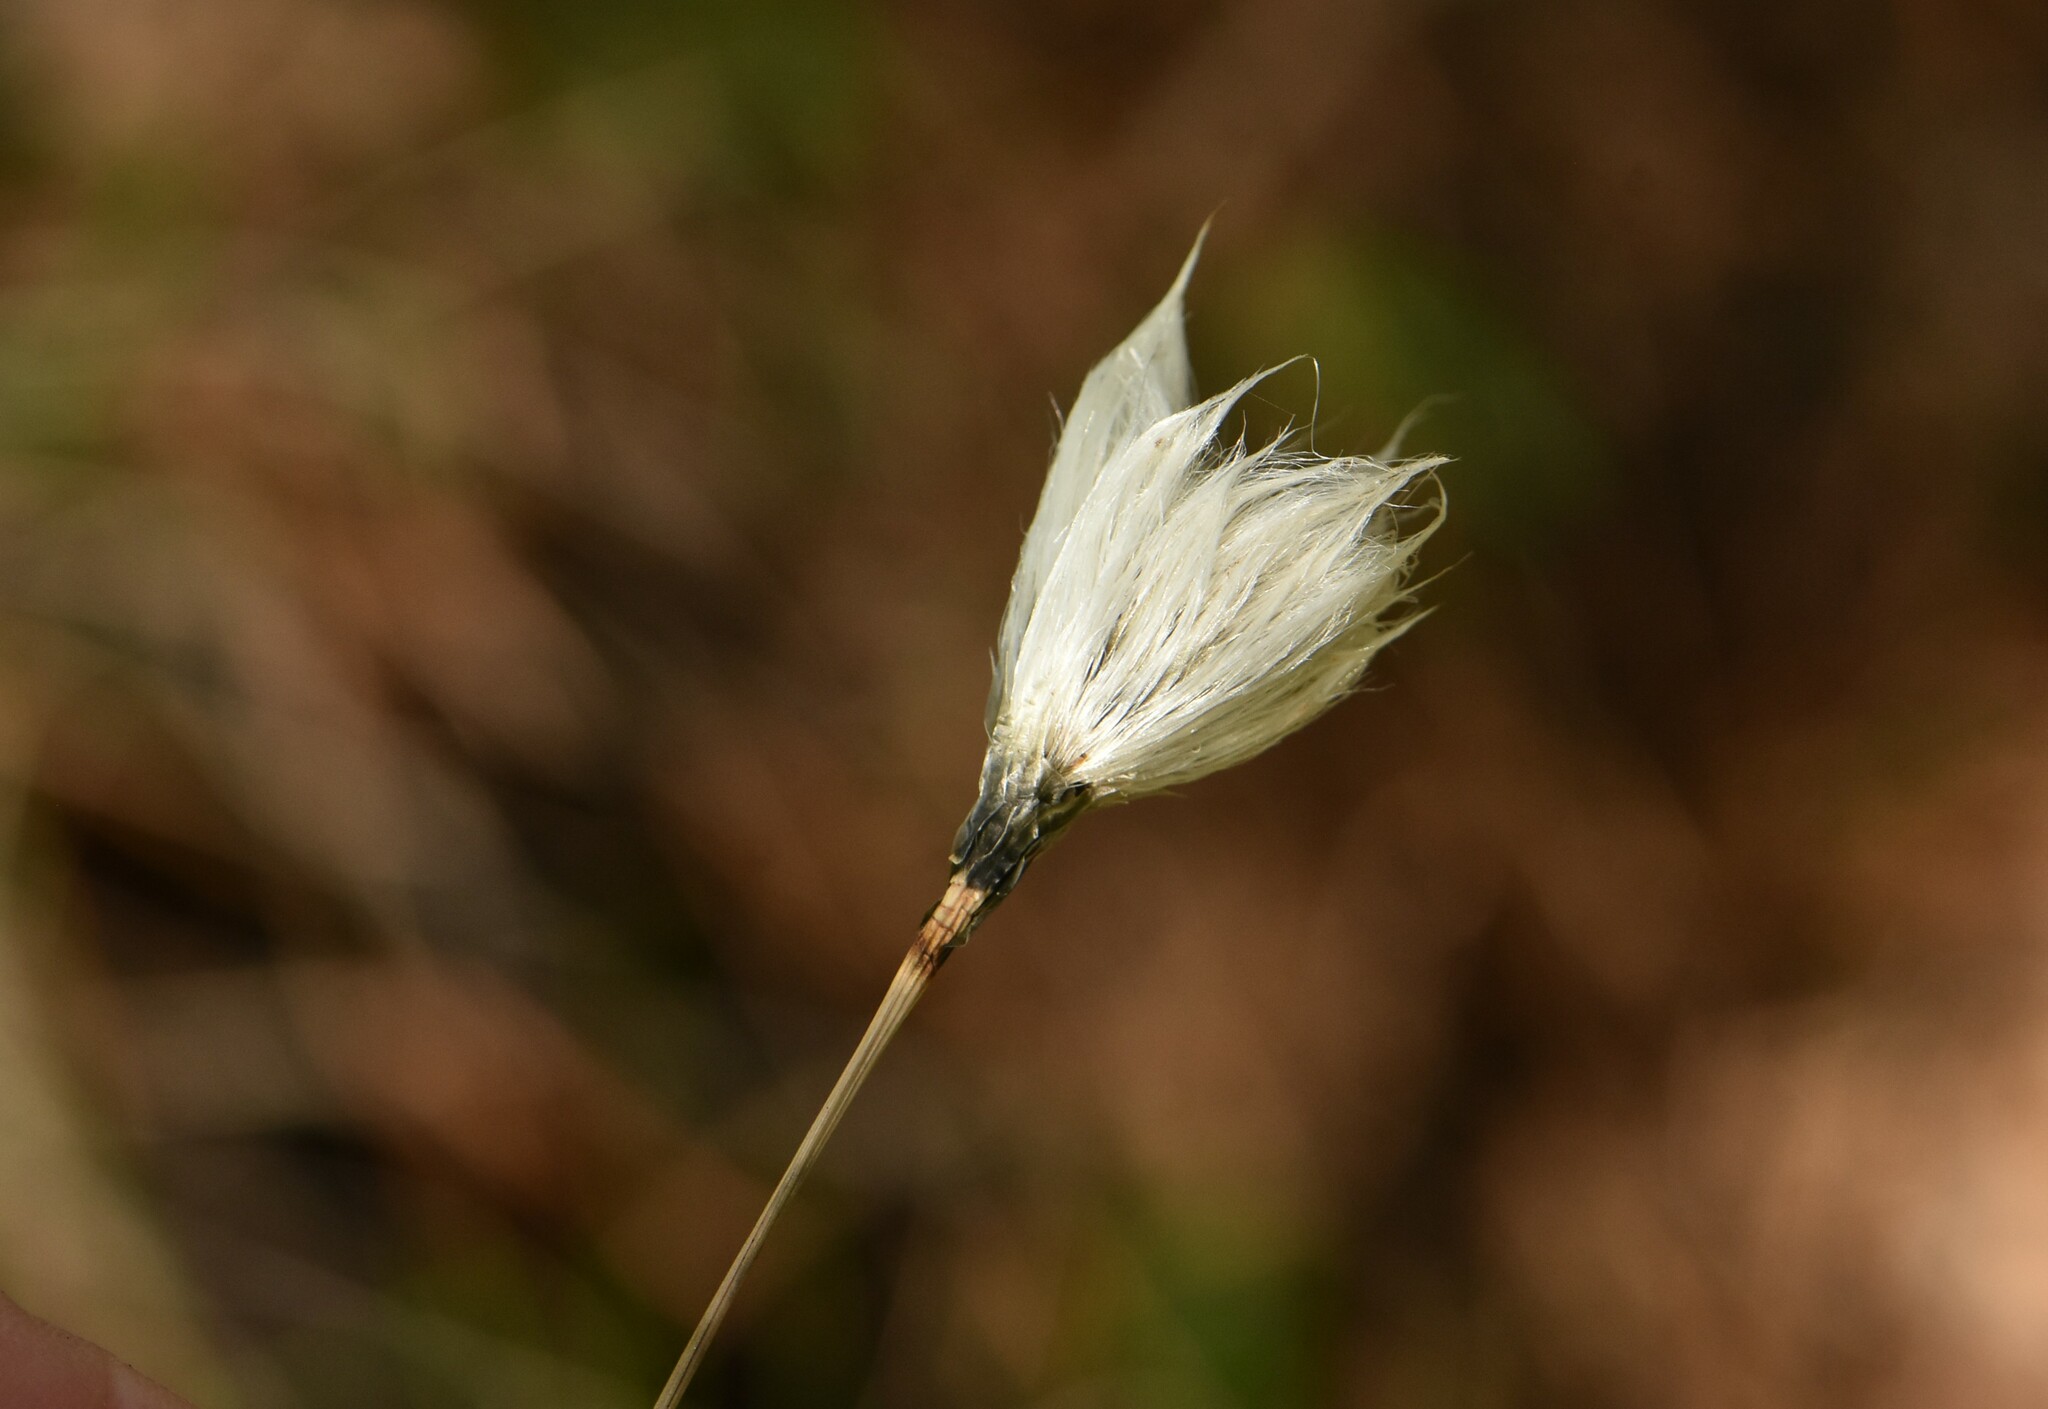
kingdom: Plantae
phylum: Tracheophyta
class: Liliopsida
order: Poales
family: Cyperaceae
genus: Eriophorum
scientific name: Eriophorum vaginatum
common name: Hare's-tail cottongrass
